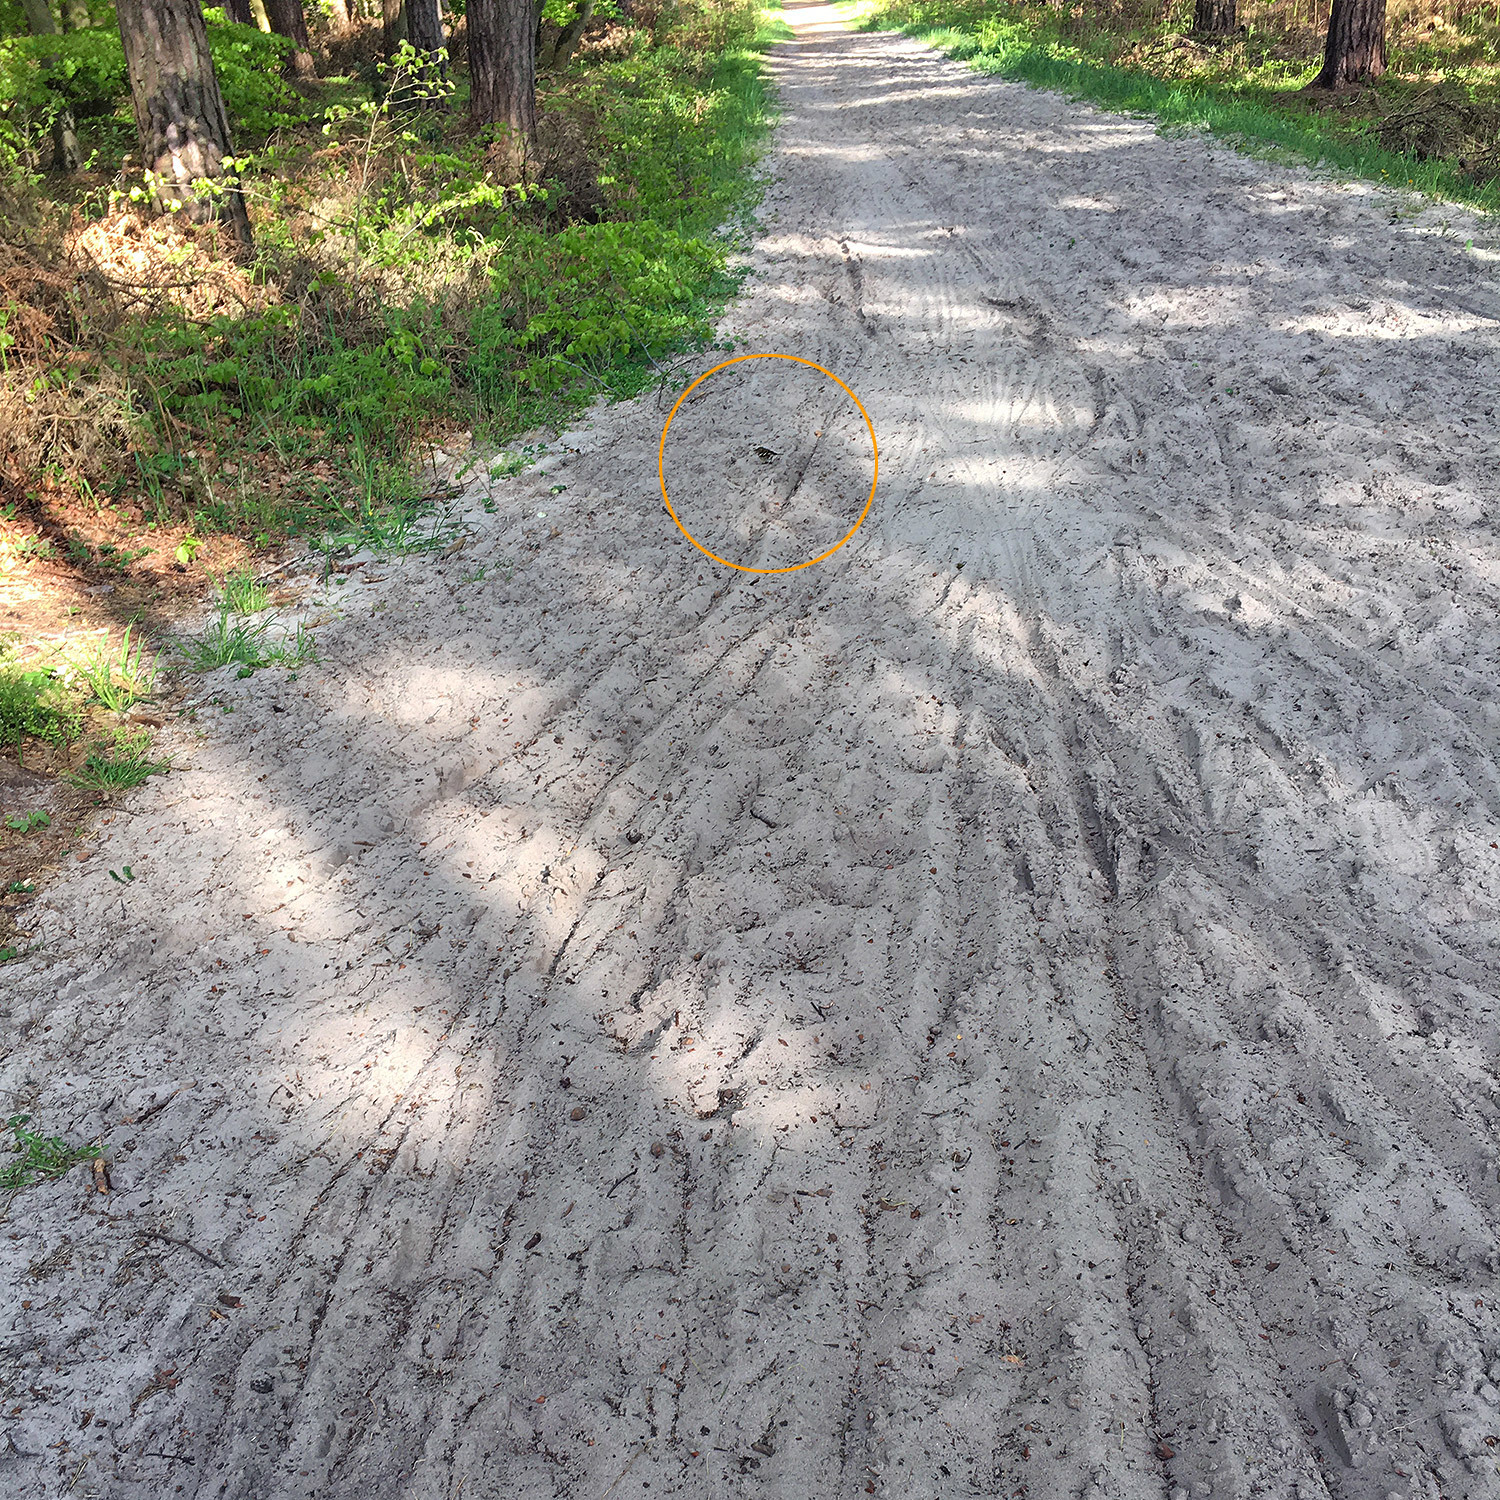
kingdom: Animalia
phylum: Chordata
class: Aves
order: Passeriformes
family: Fringillidae
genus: Fringilla
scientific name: Fringilla coelebs
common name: Common chaffinch
